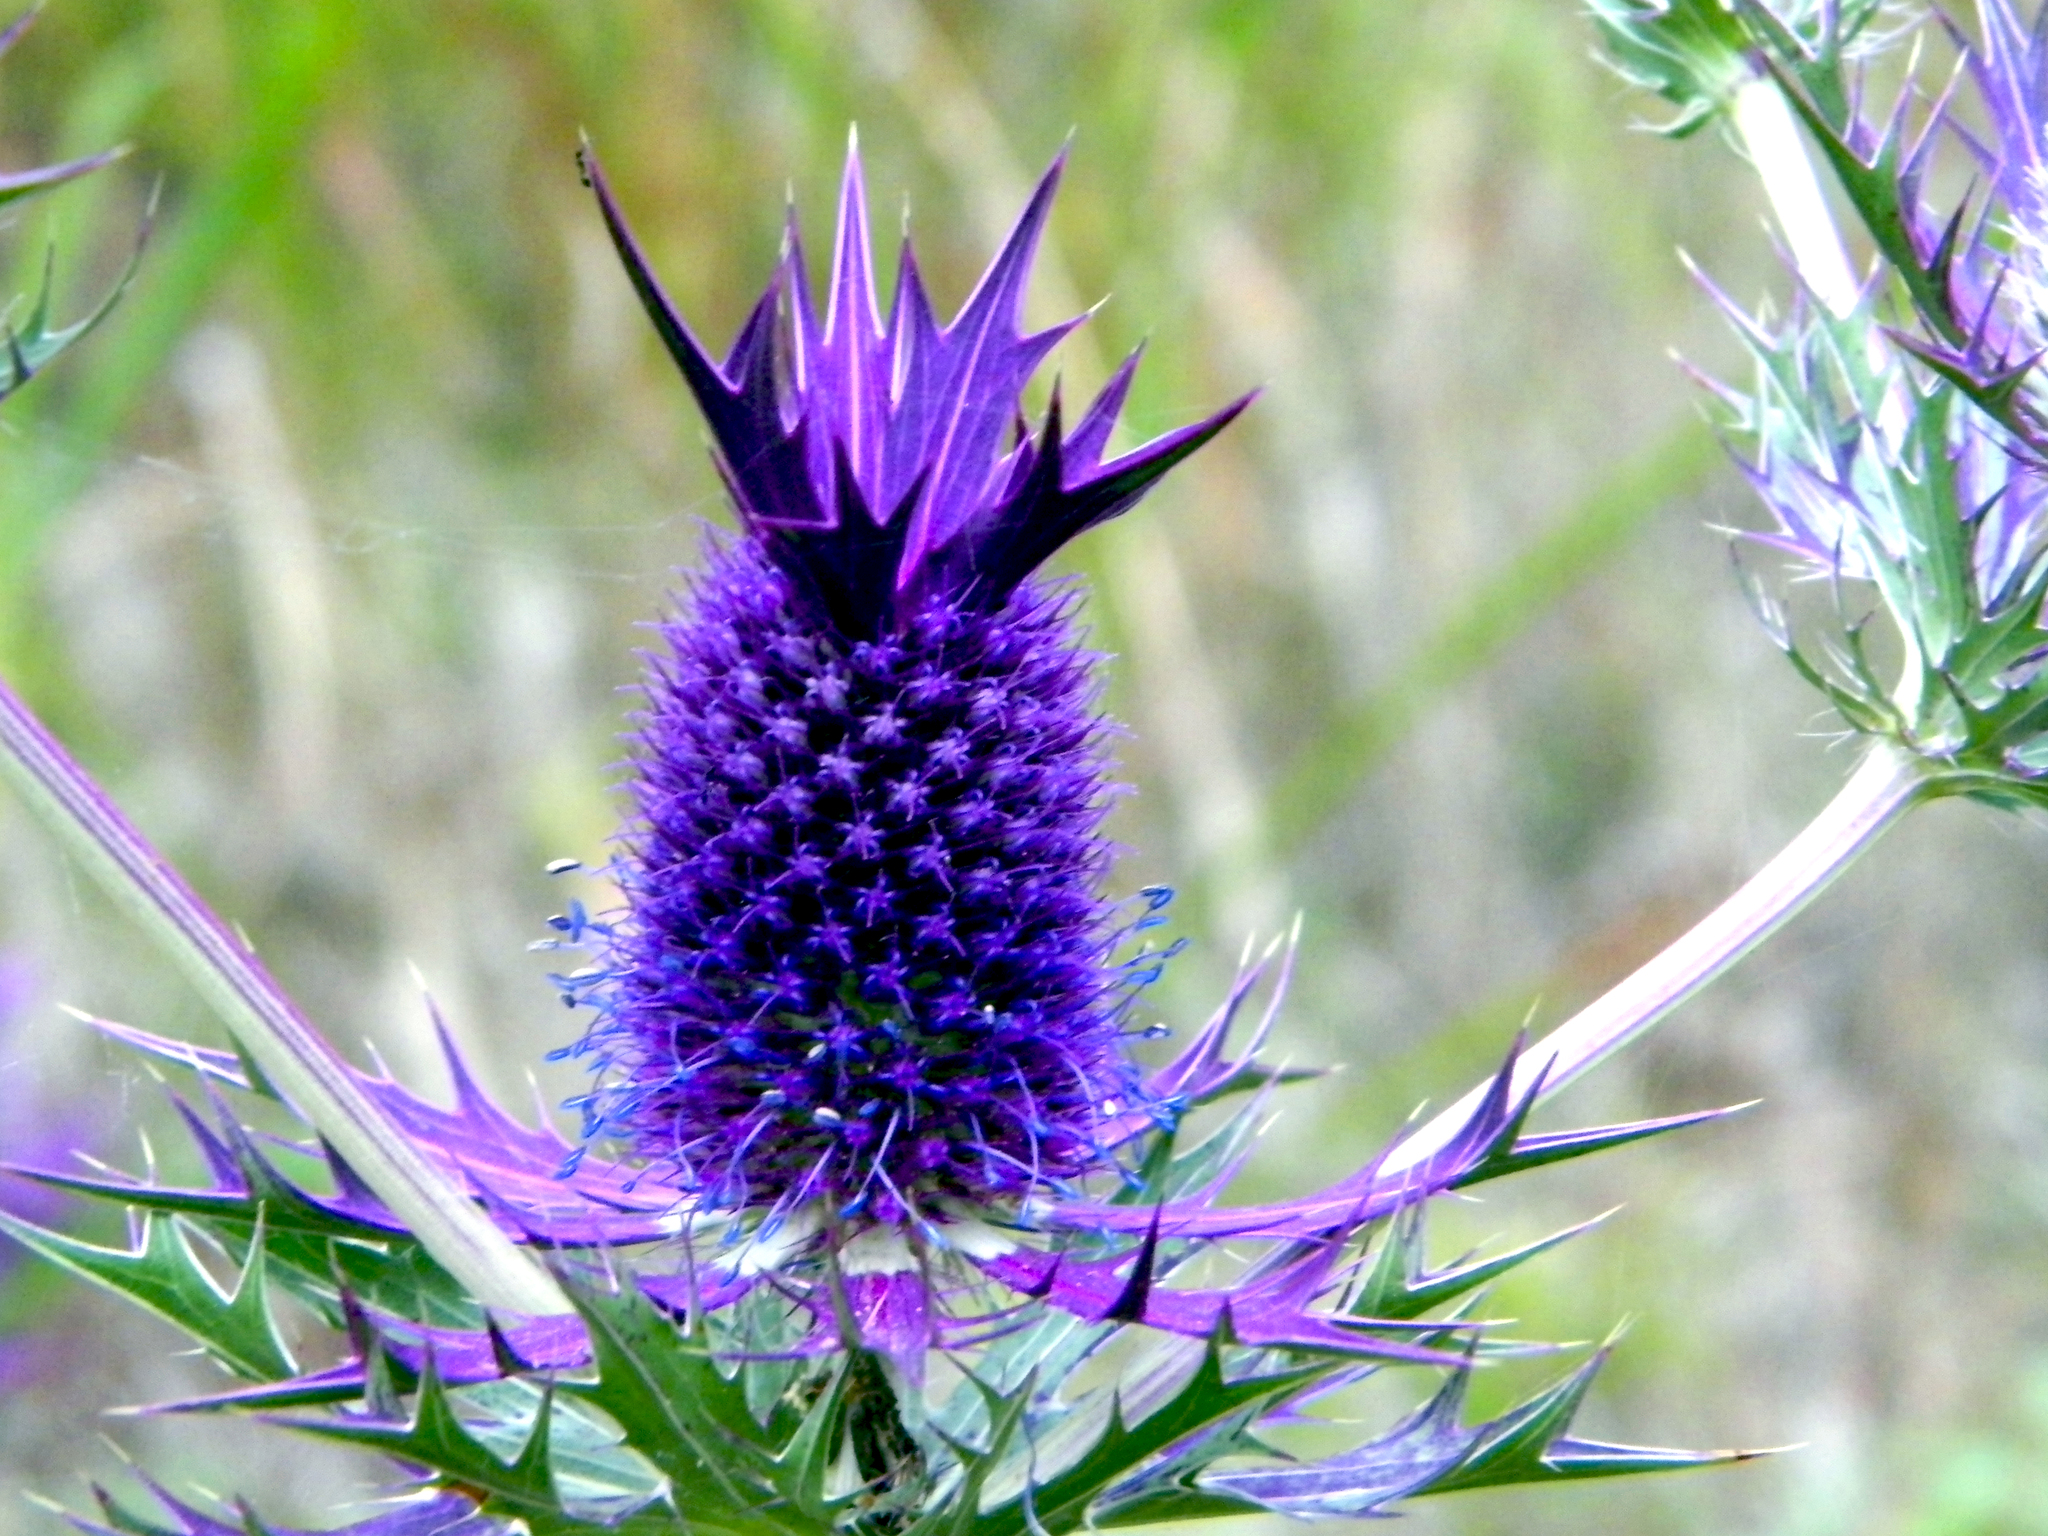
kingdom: Plantae
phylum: Tracheophyta
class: Magnoliopsida
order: Apiales
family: Apiaceae
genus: Eryngium
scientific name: Eryngium leavenworthii
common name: Leavenworth's eryngo
